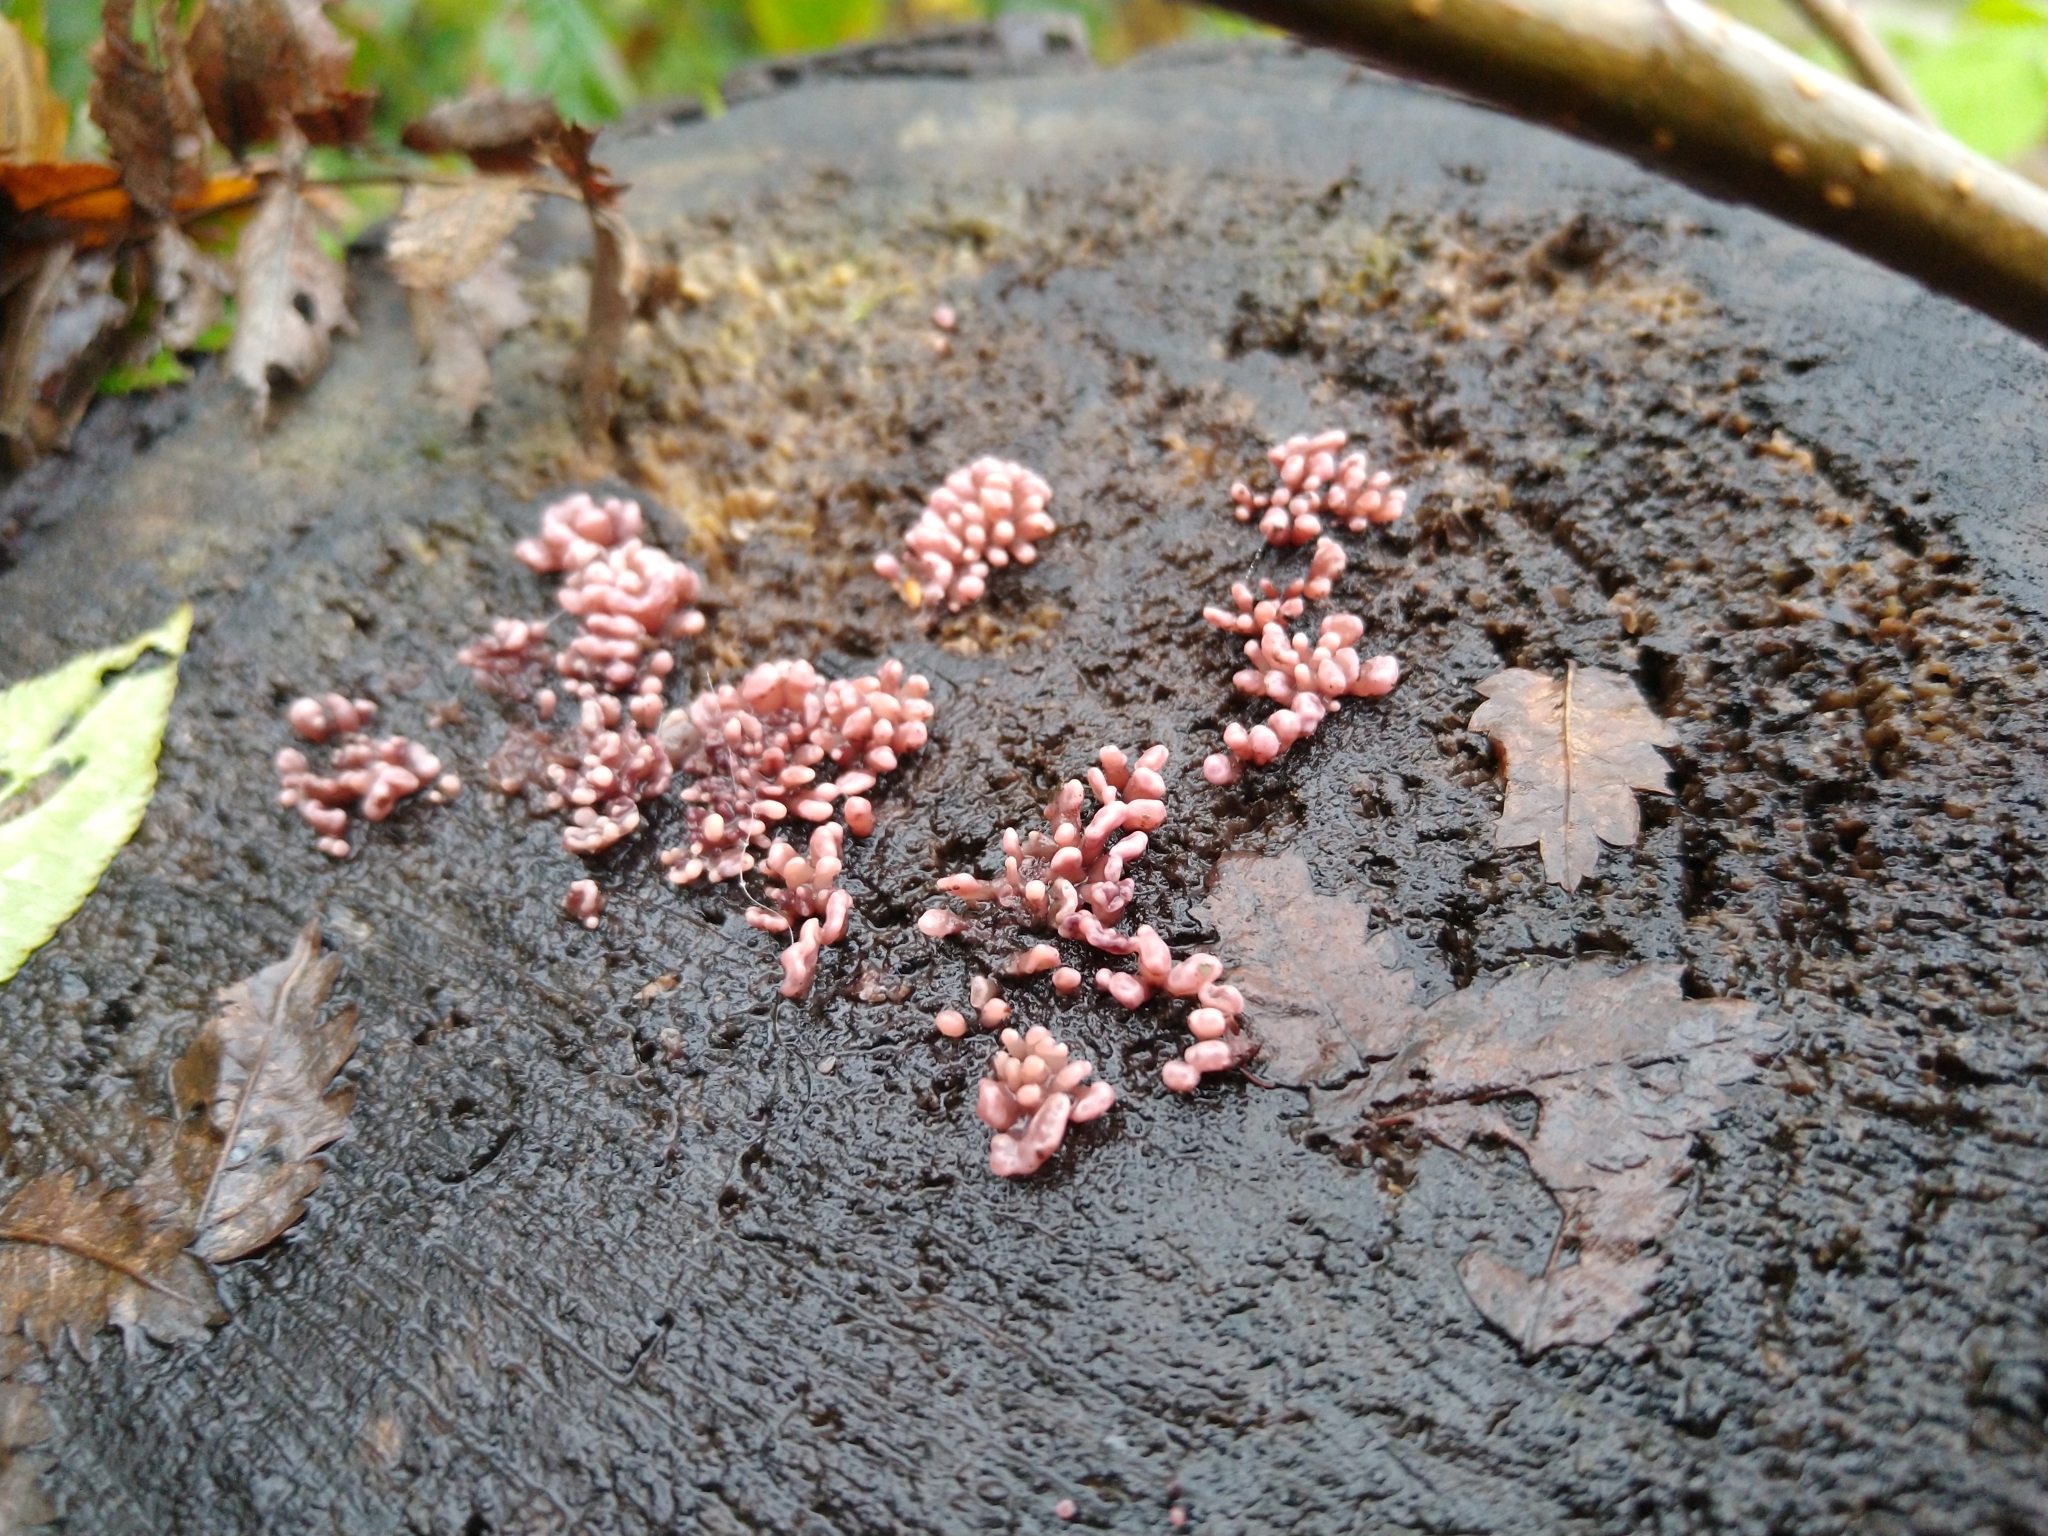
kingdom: Fungi
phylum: Ascomycota
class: Leotiomycetes
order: Helotiales
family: Gelatinodiscaceae
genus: Ascocoryne
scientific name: Ascocoryne sarcoides
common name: Purple jellydisc
